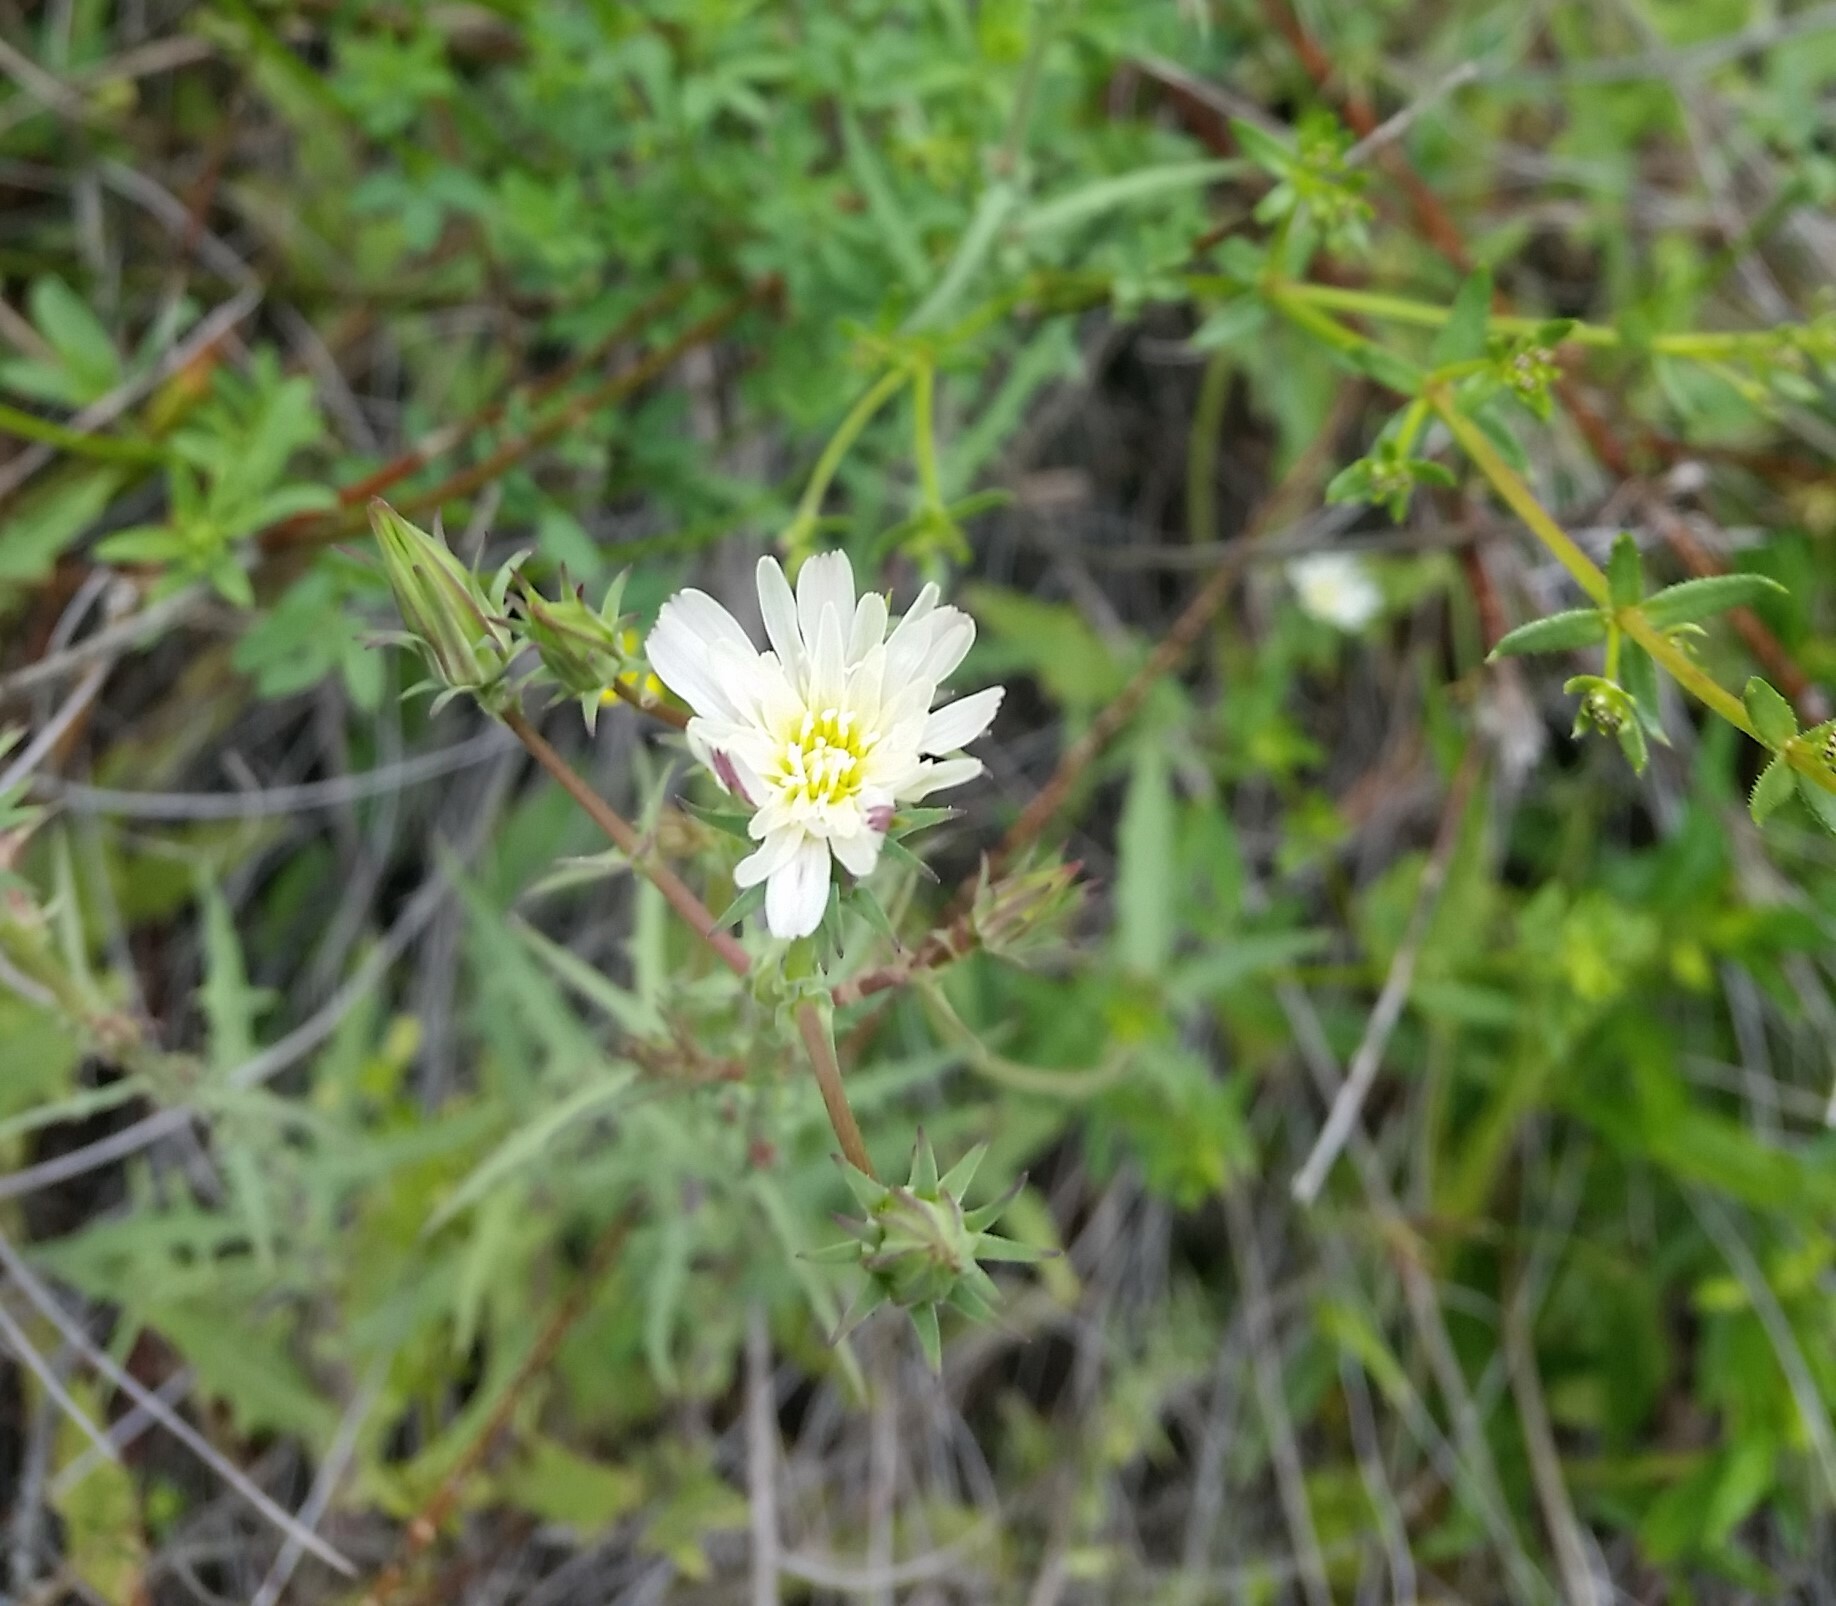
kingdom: Plantae
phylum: Tracheophyta
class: Magnoliopsida
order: Asterales
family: Asteraceae
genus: Rafinesquia
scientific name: Rafinesquia californica
